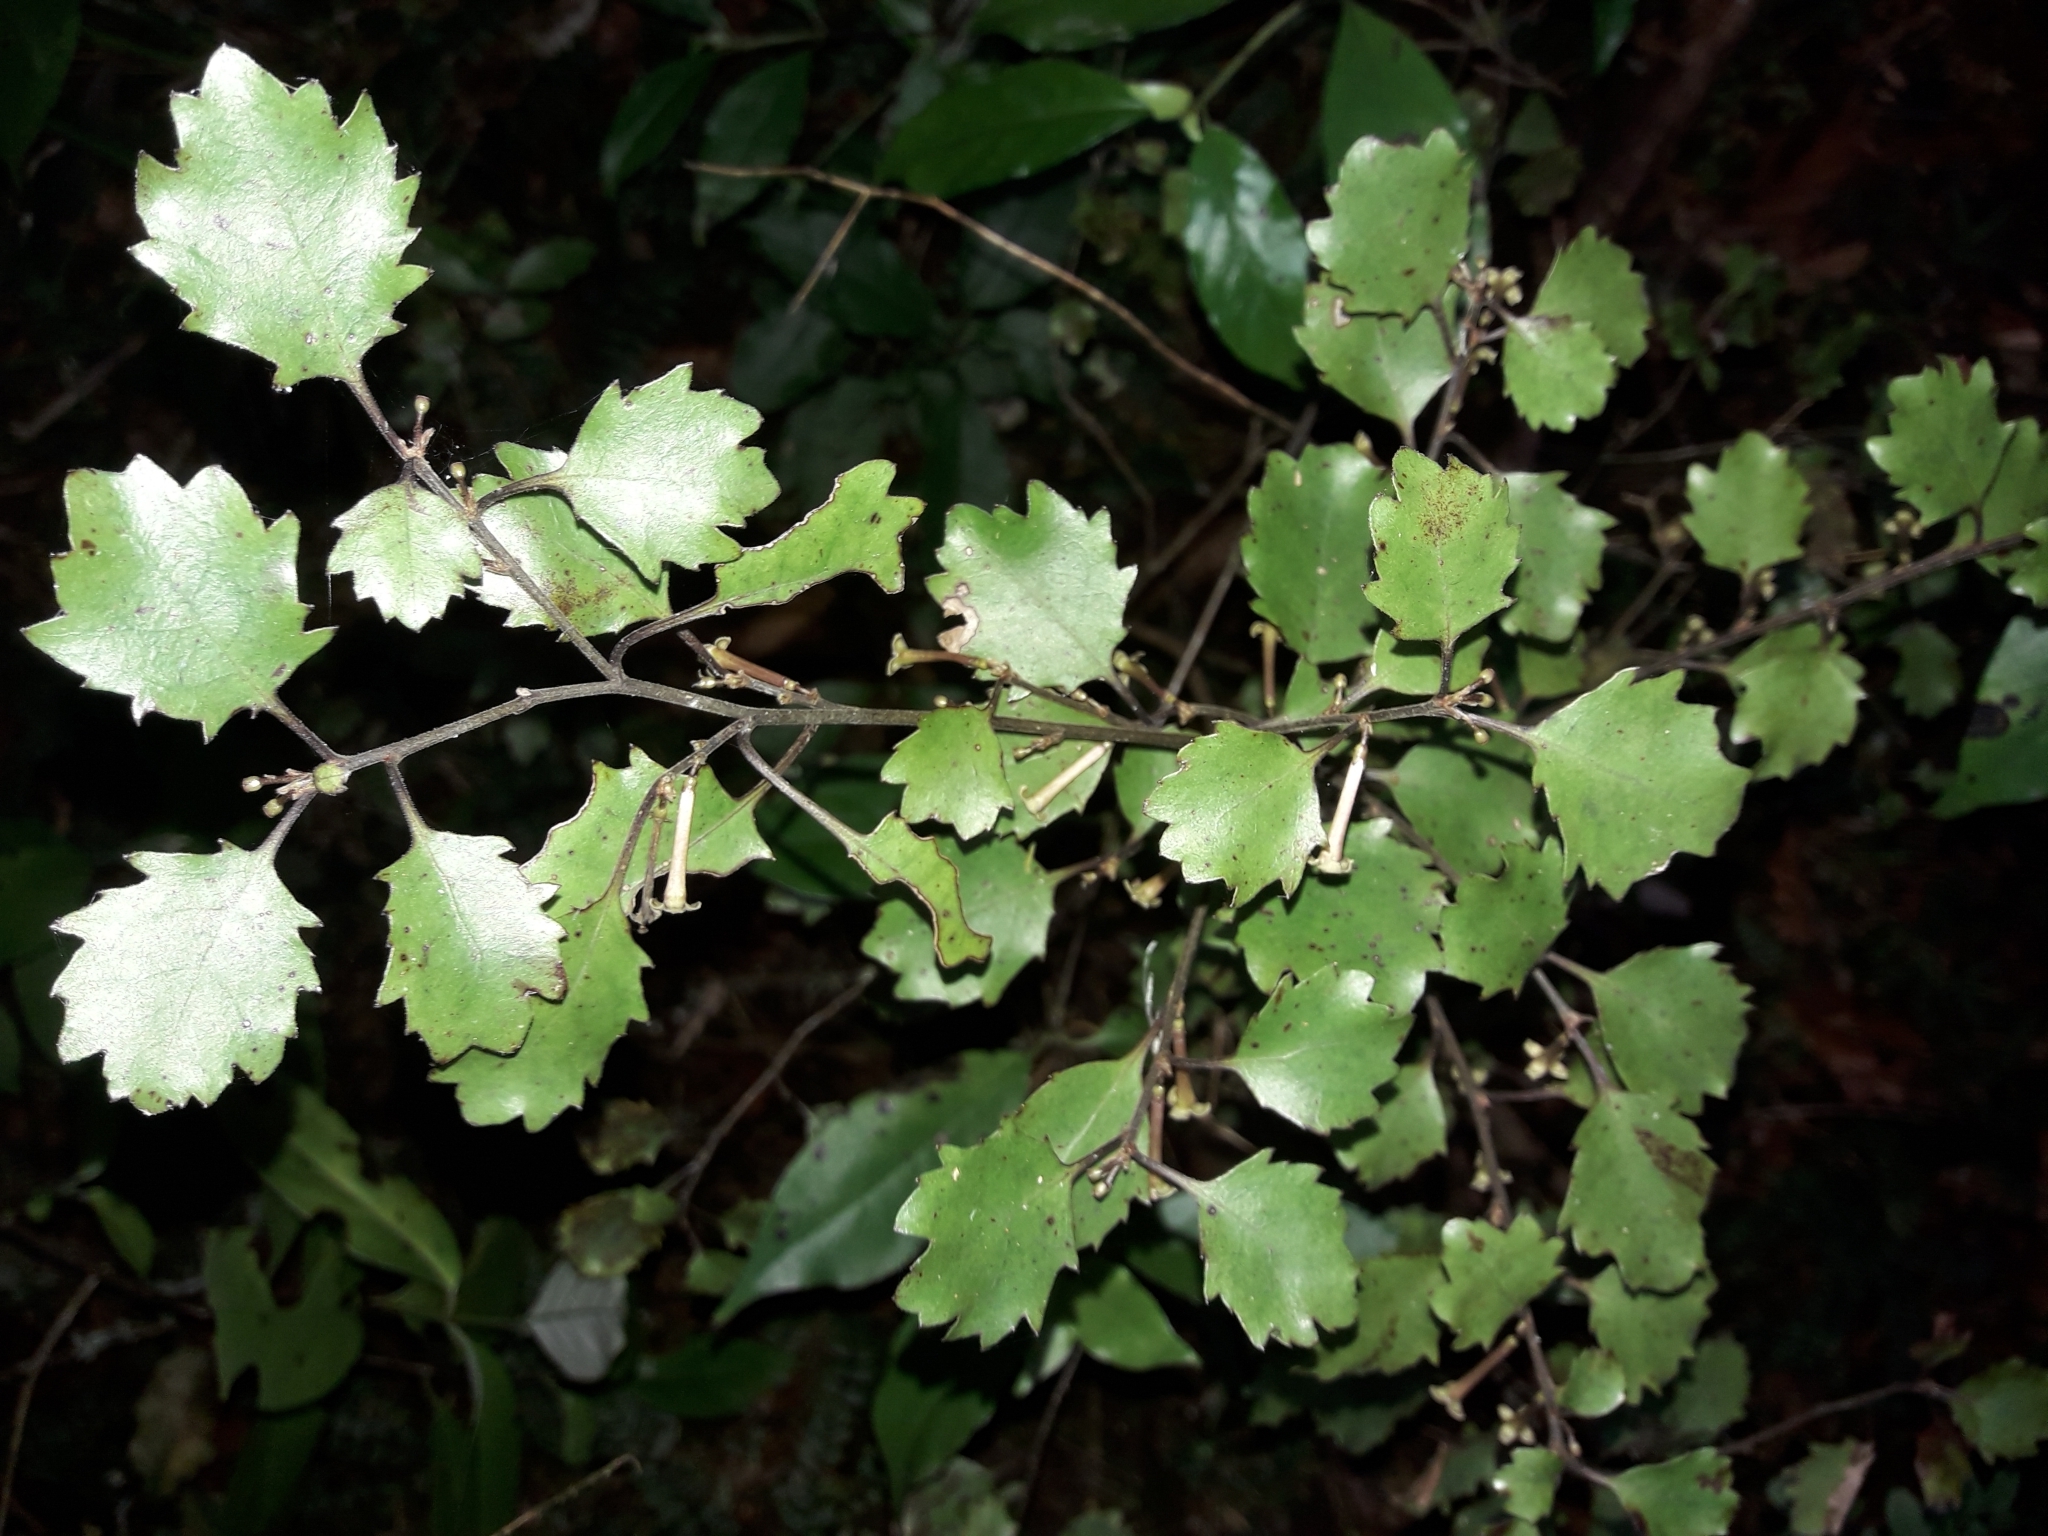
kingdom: Plantae
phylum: Tracheophyta
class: Magnoliopsida
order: Asterales
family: Alseuosmiaceae
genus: Alseuosmia
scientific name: Alseuosmia banksii
